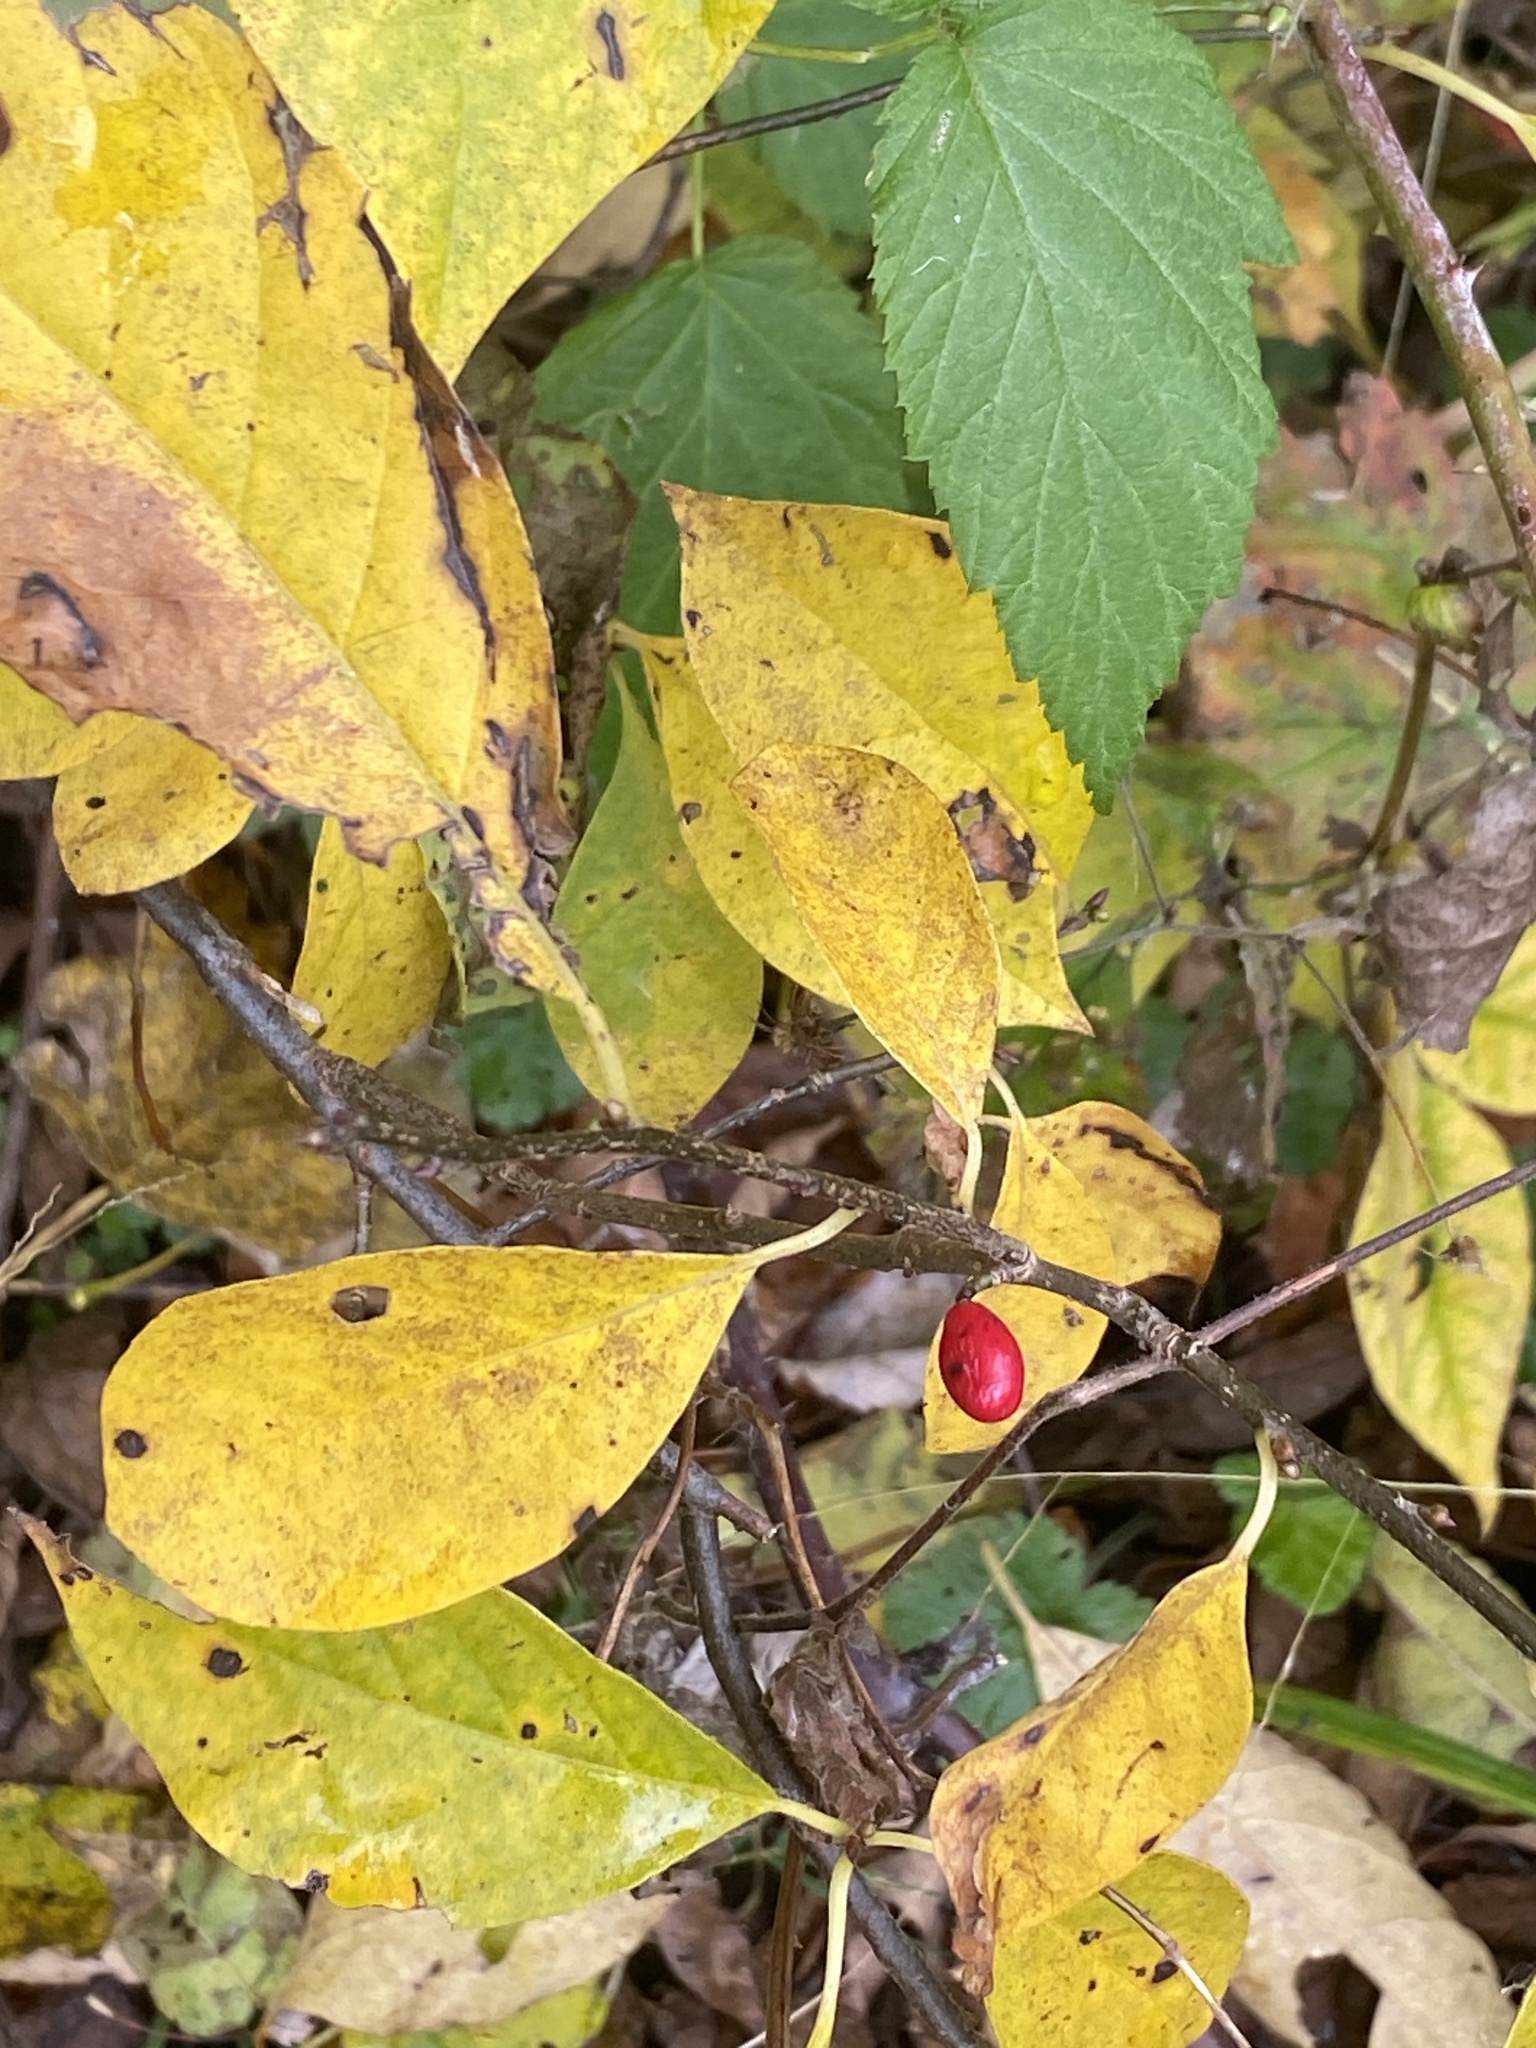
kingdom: Plantae
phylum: Tracheophyta
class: Magnoliopsida
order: Laurales
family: Lauraceae
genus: Lindera
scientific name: Lindera benzoin
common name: Spicebush
